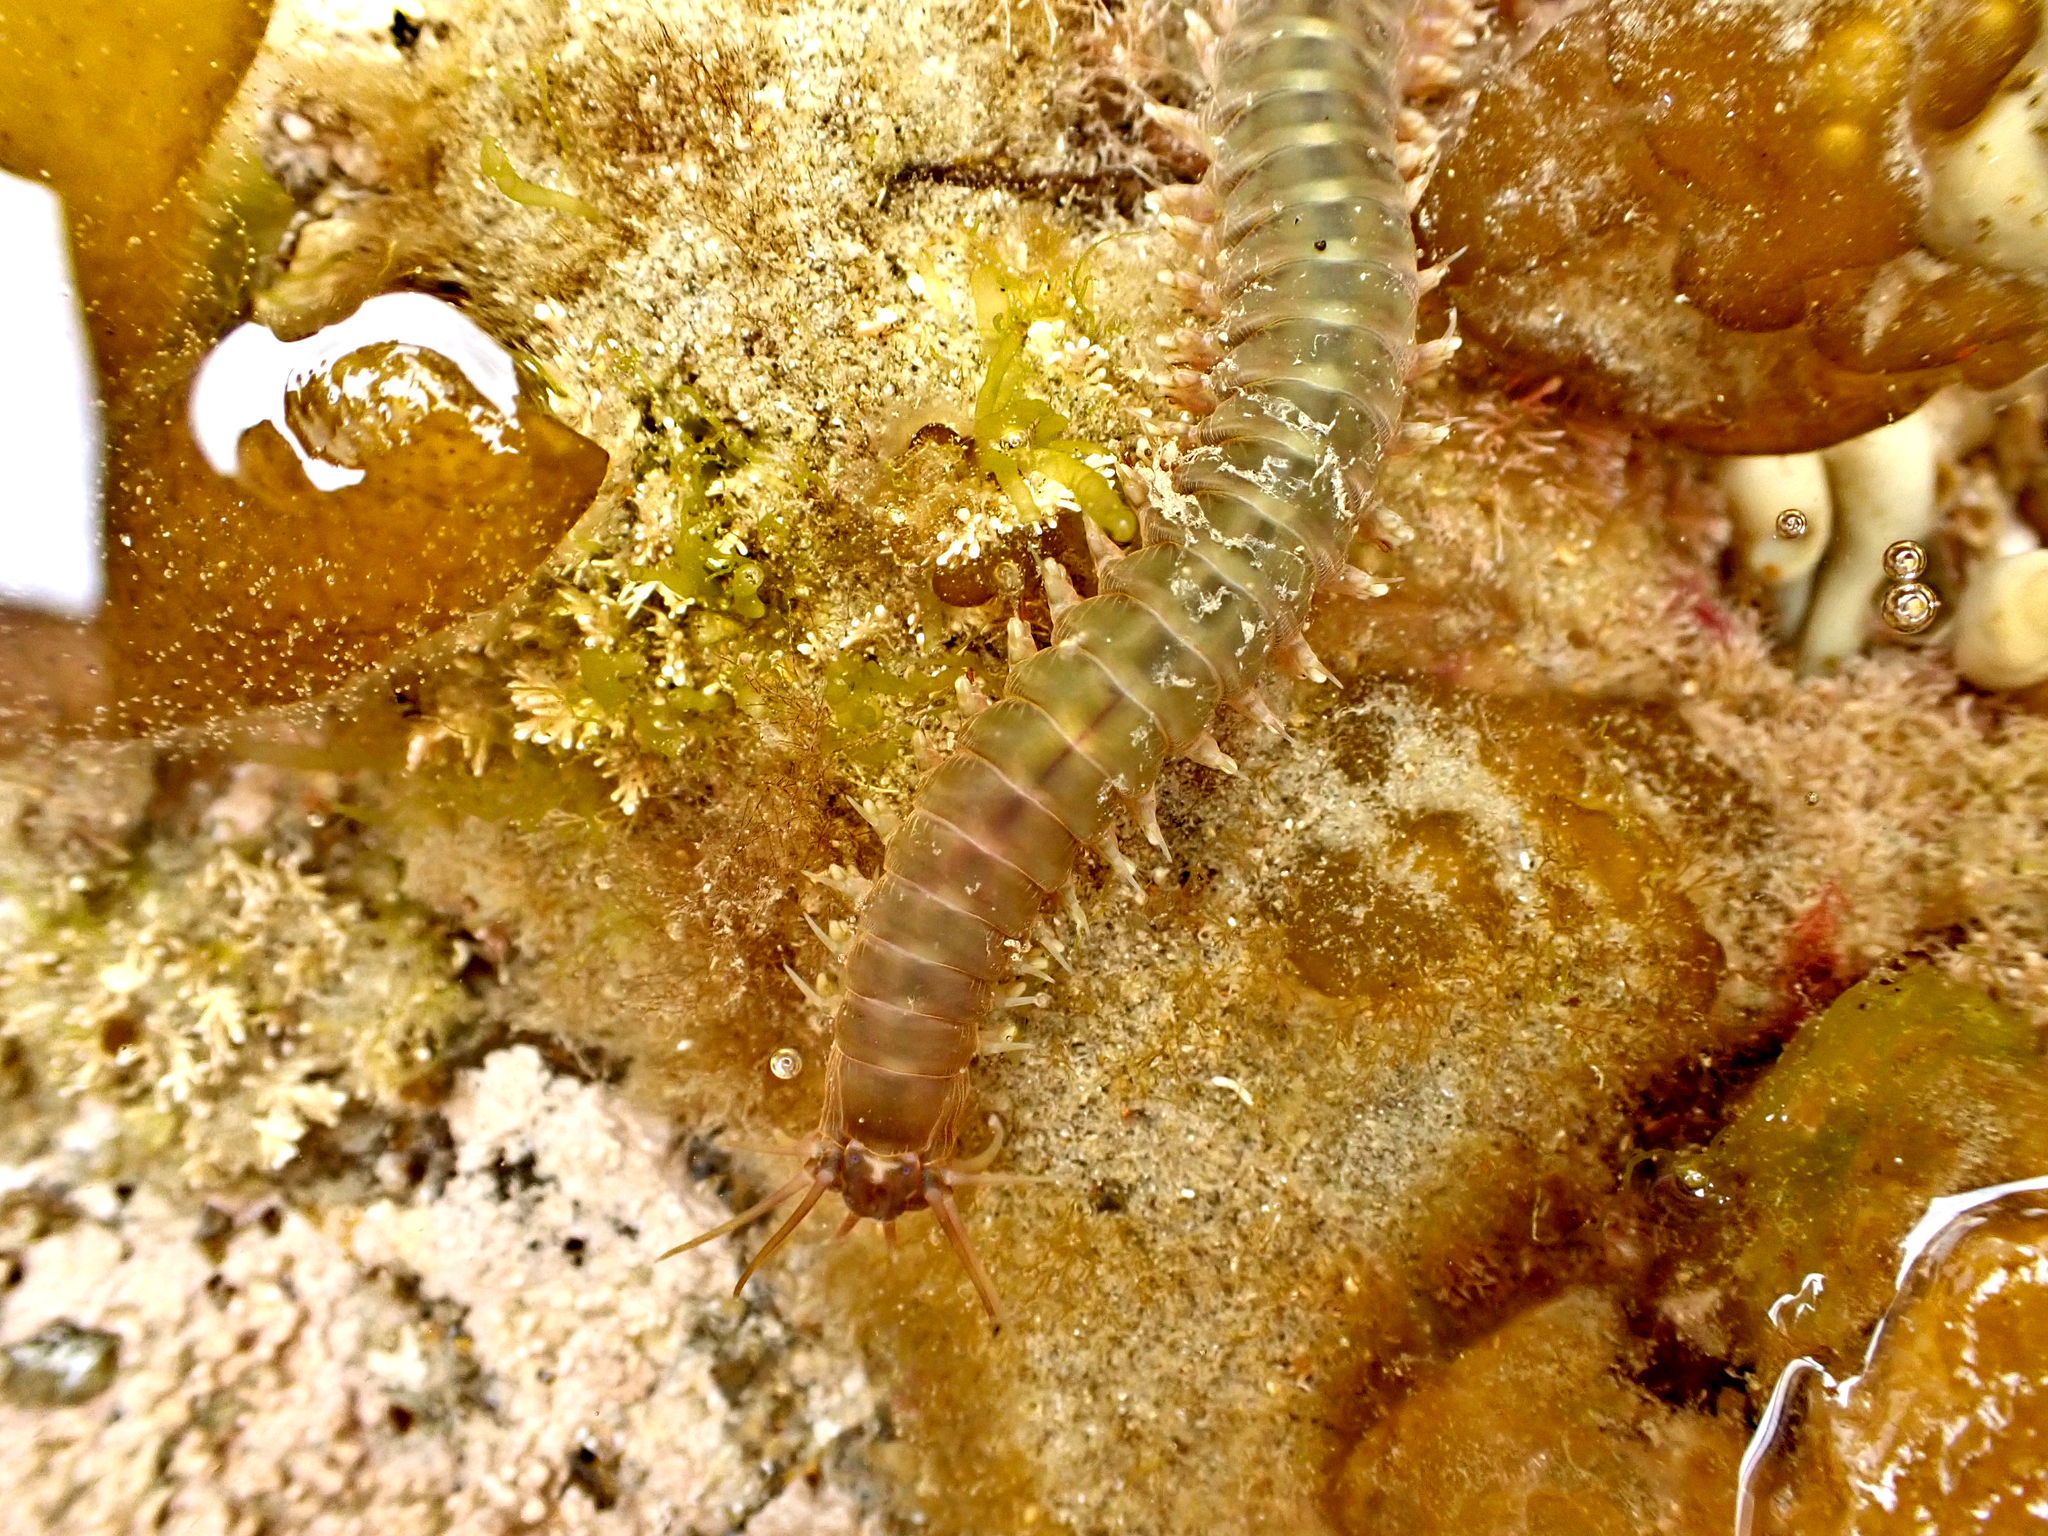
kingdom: Animalia
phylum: Annelida
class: Polychaeta
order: Phyllodocida
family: Nereididae
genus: Perinereis
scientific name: Perinereis amblyodonta
